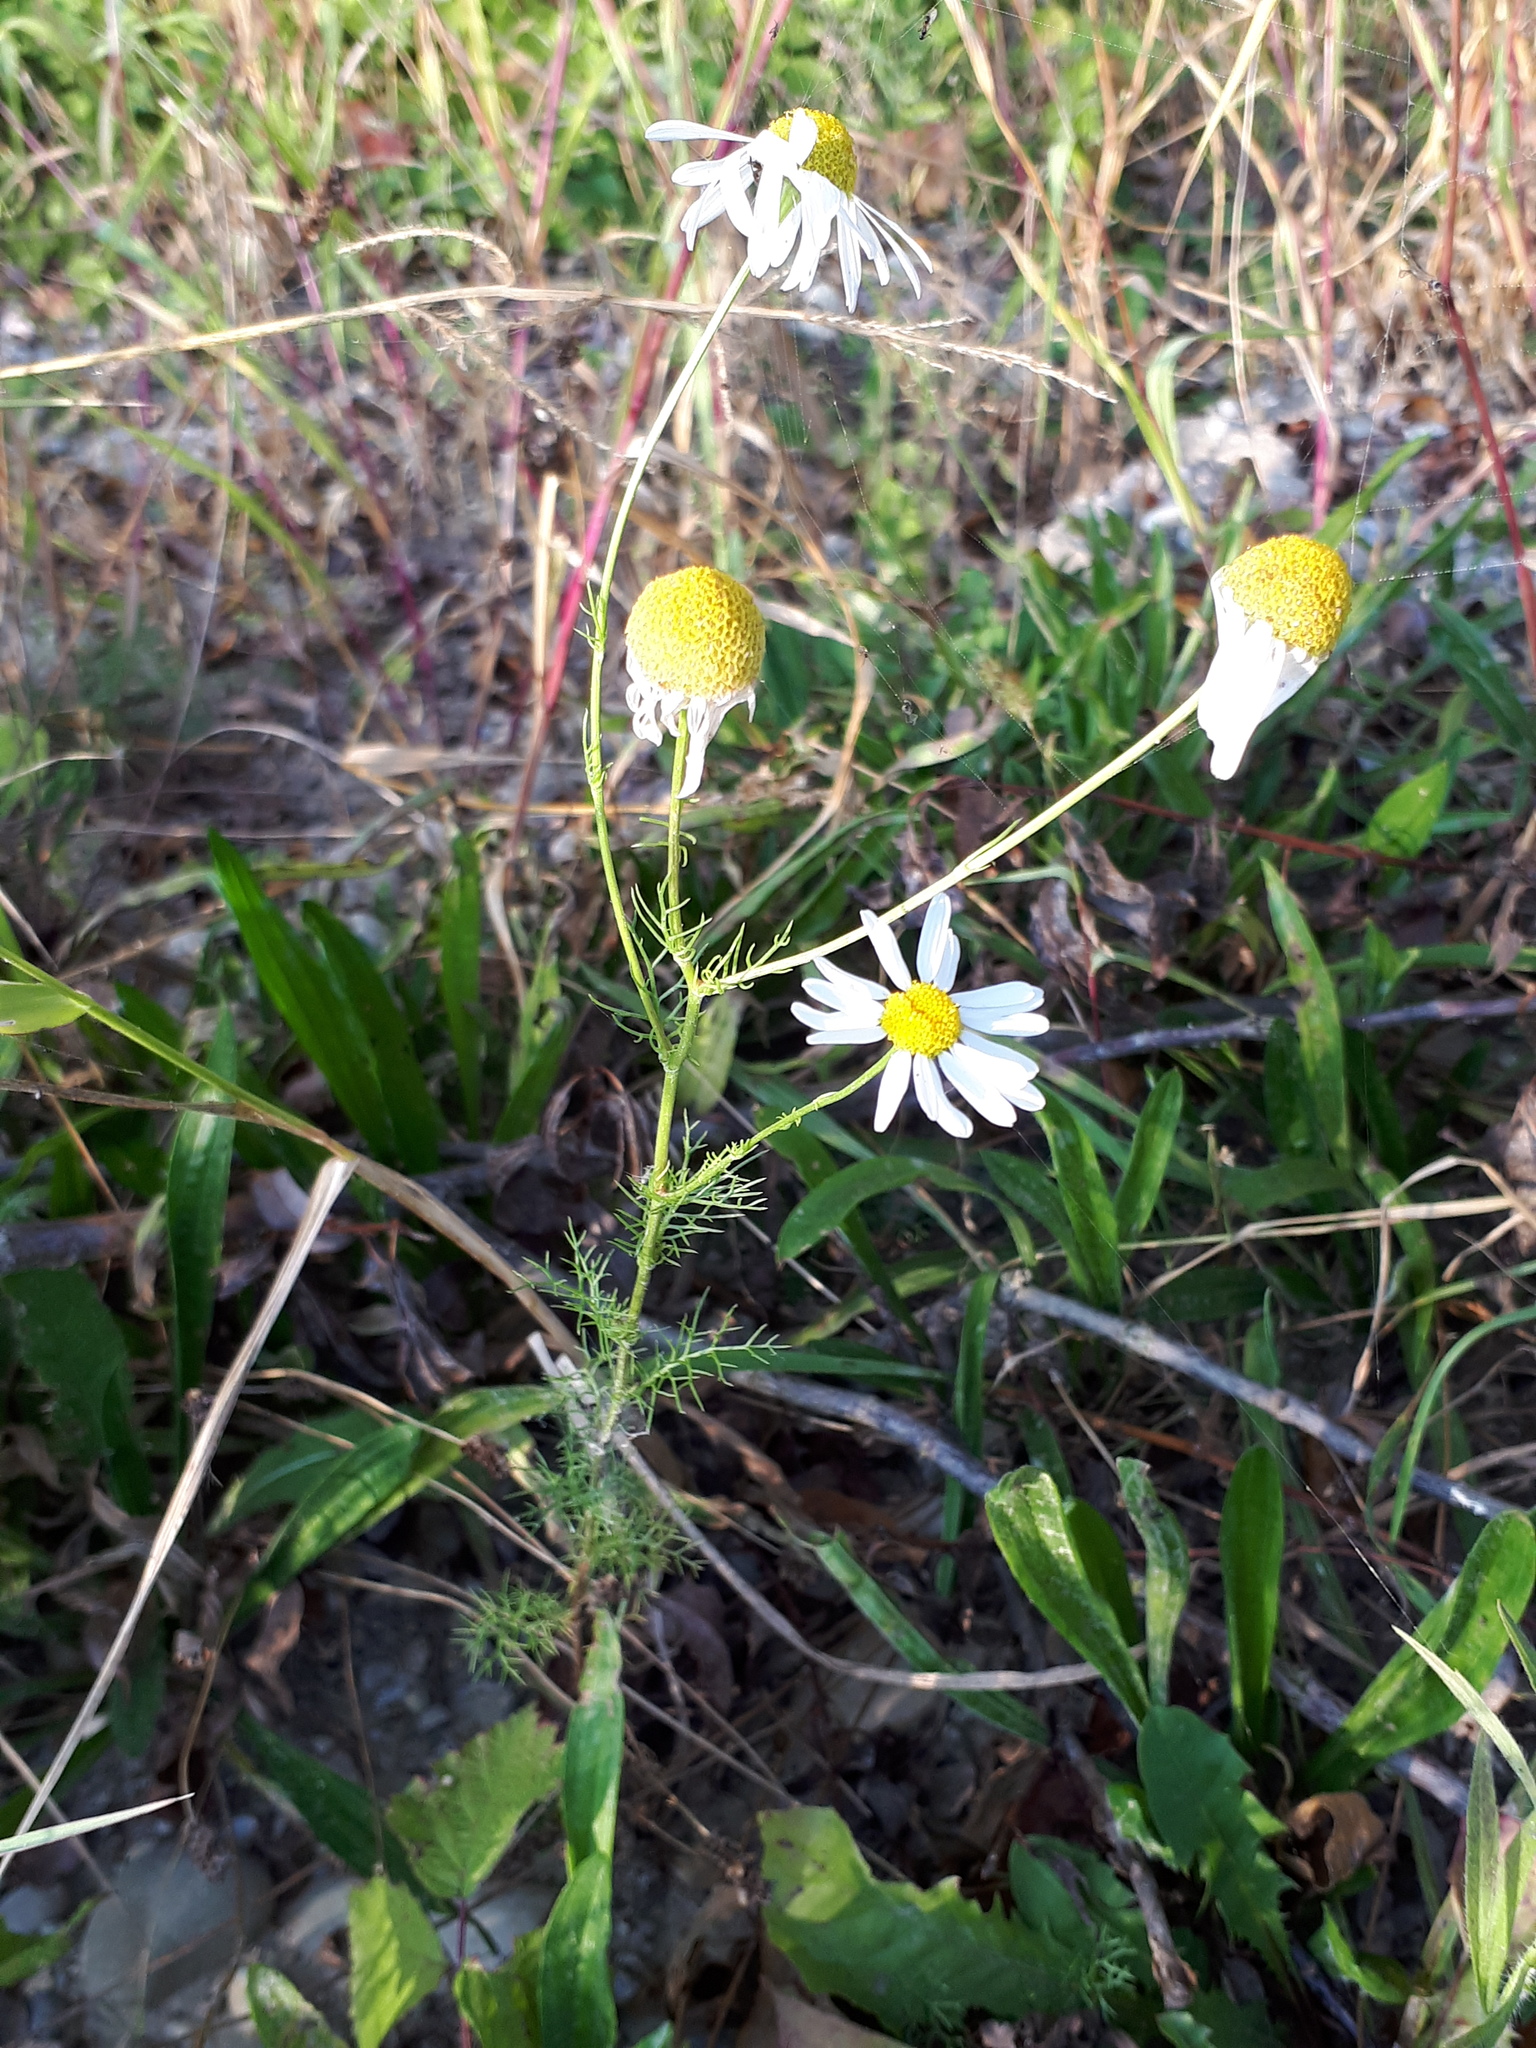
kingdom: Plantae
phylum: Tracheophyta
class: Magnoliopsida
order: Asterales
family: Asteraceae
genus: Tripleurospermum
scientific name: Tripleurospermum inodorum
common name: Scentless mayweed
